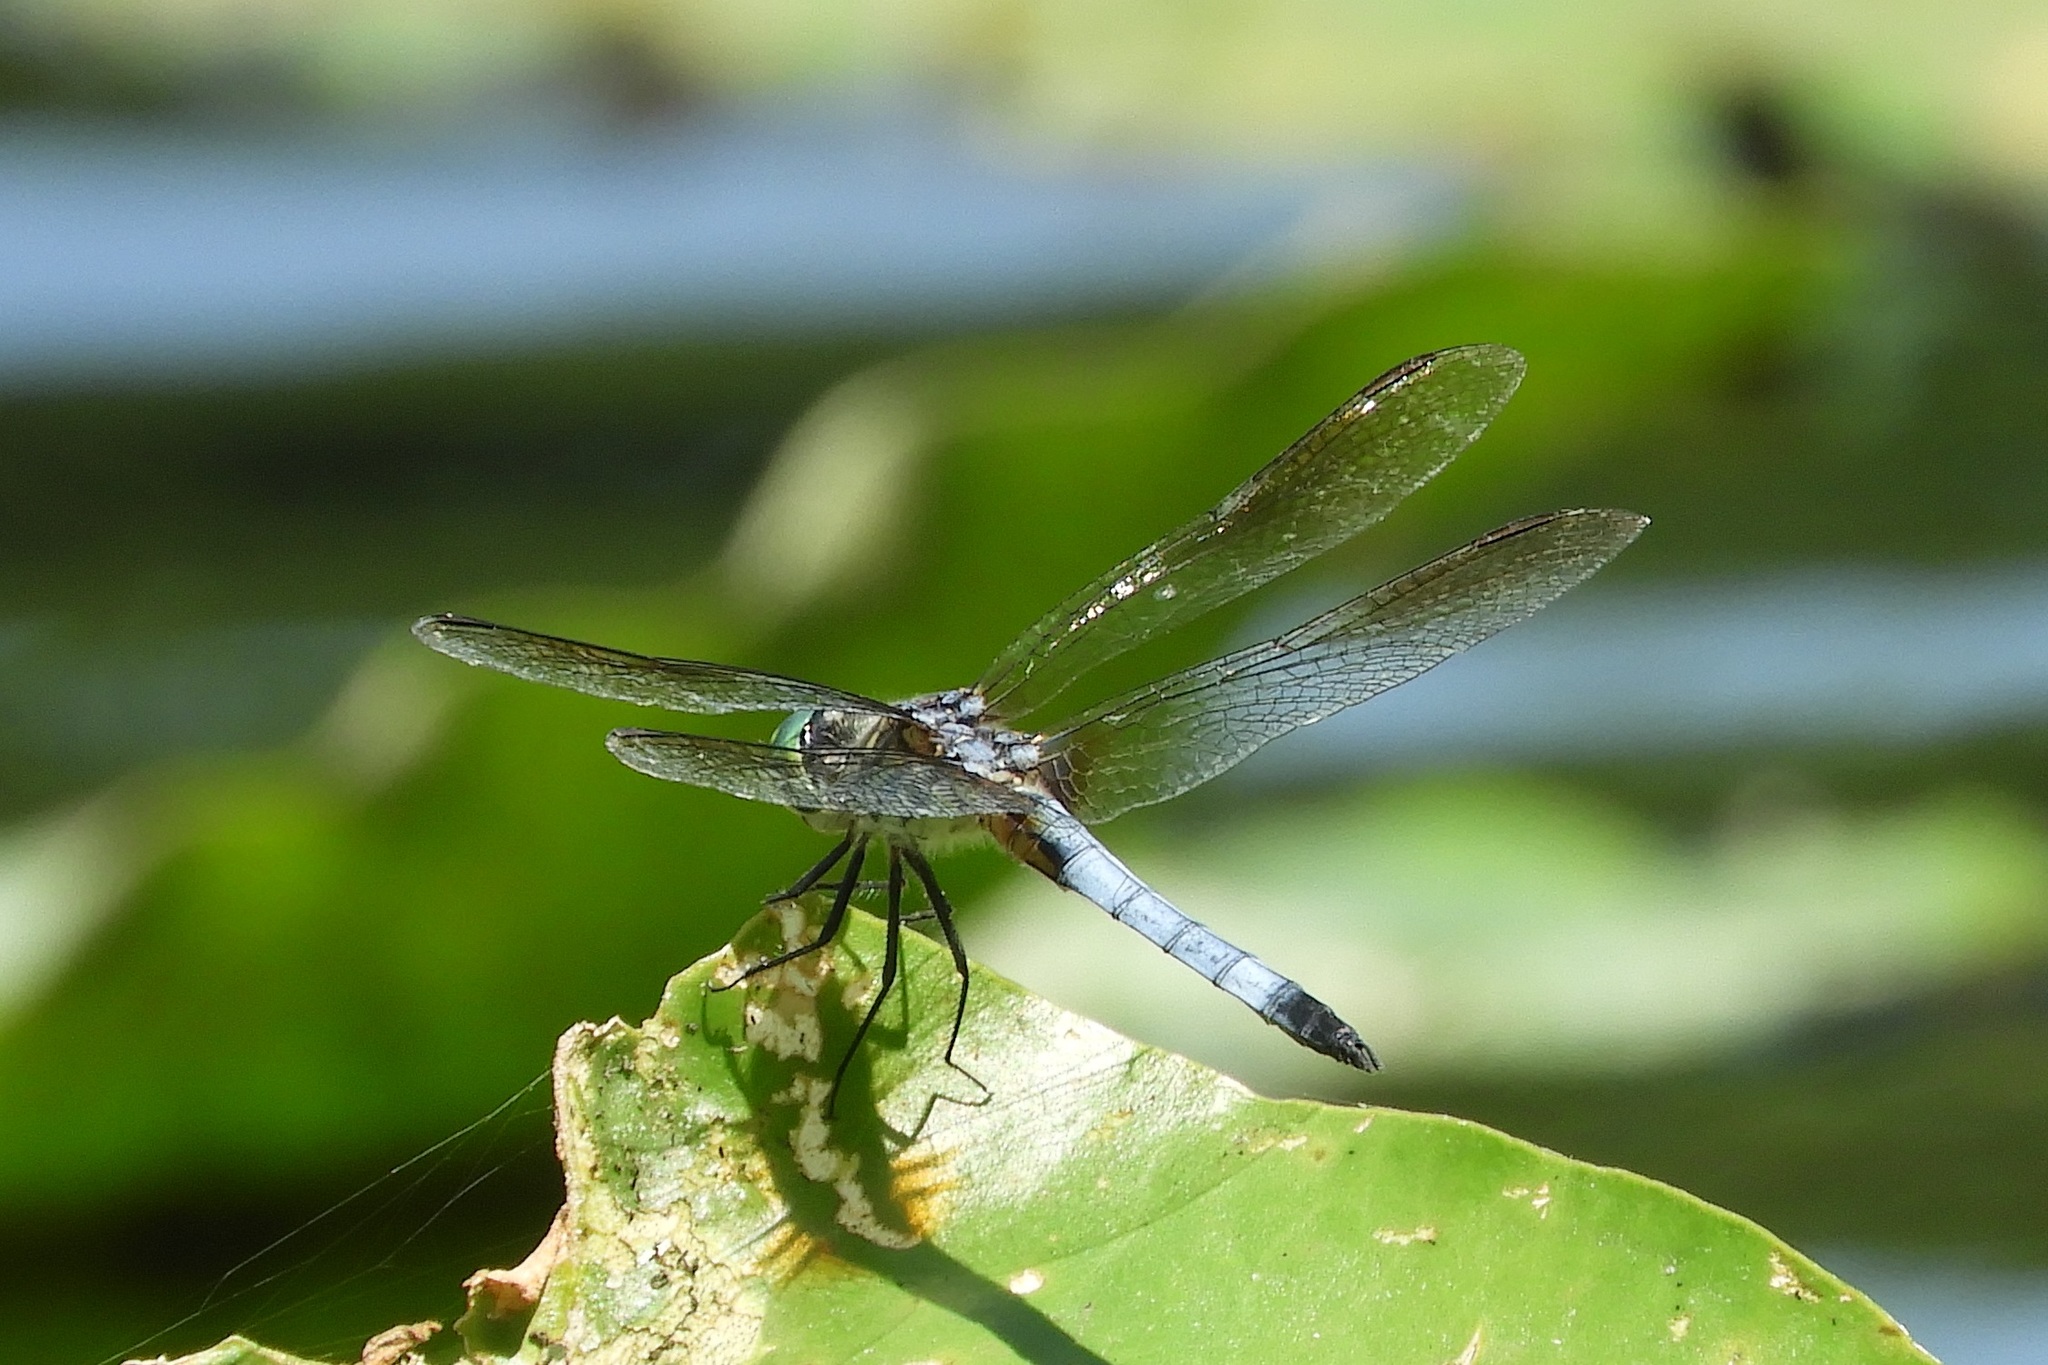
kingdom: Animalia
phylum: Arthropoda
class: Insecta
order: Odonata
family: Libellulidae
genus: Pachydiplax
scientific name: Pachydiplax longipennis
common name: Blue dasher
